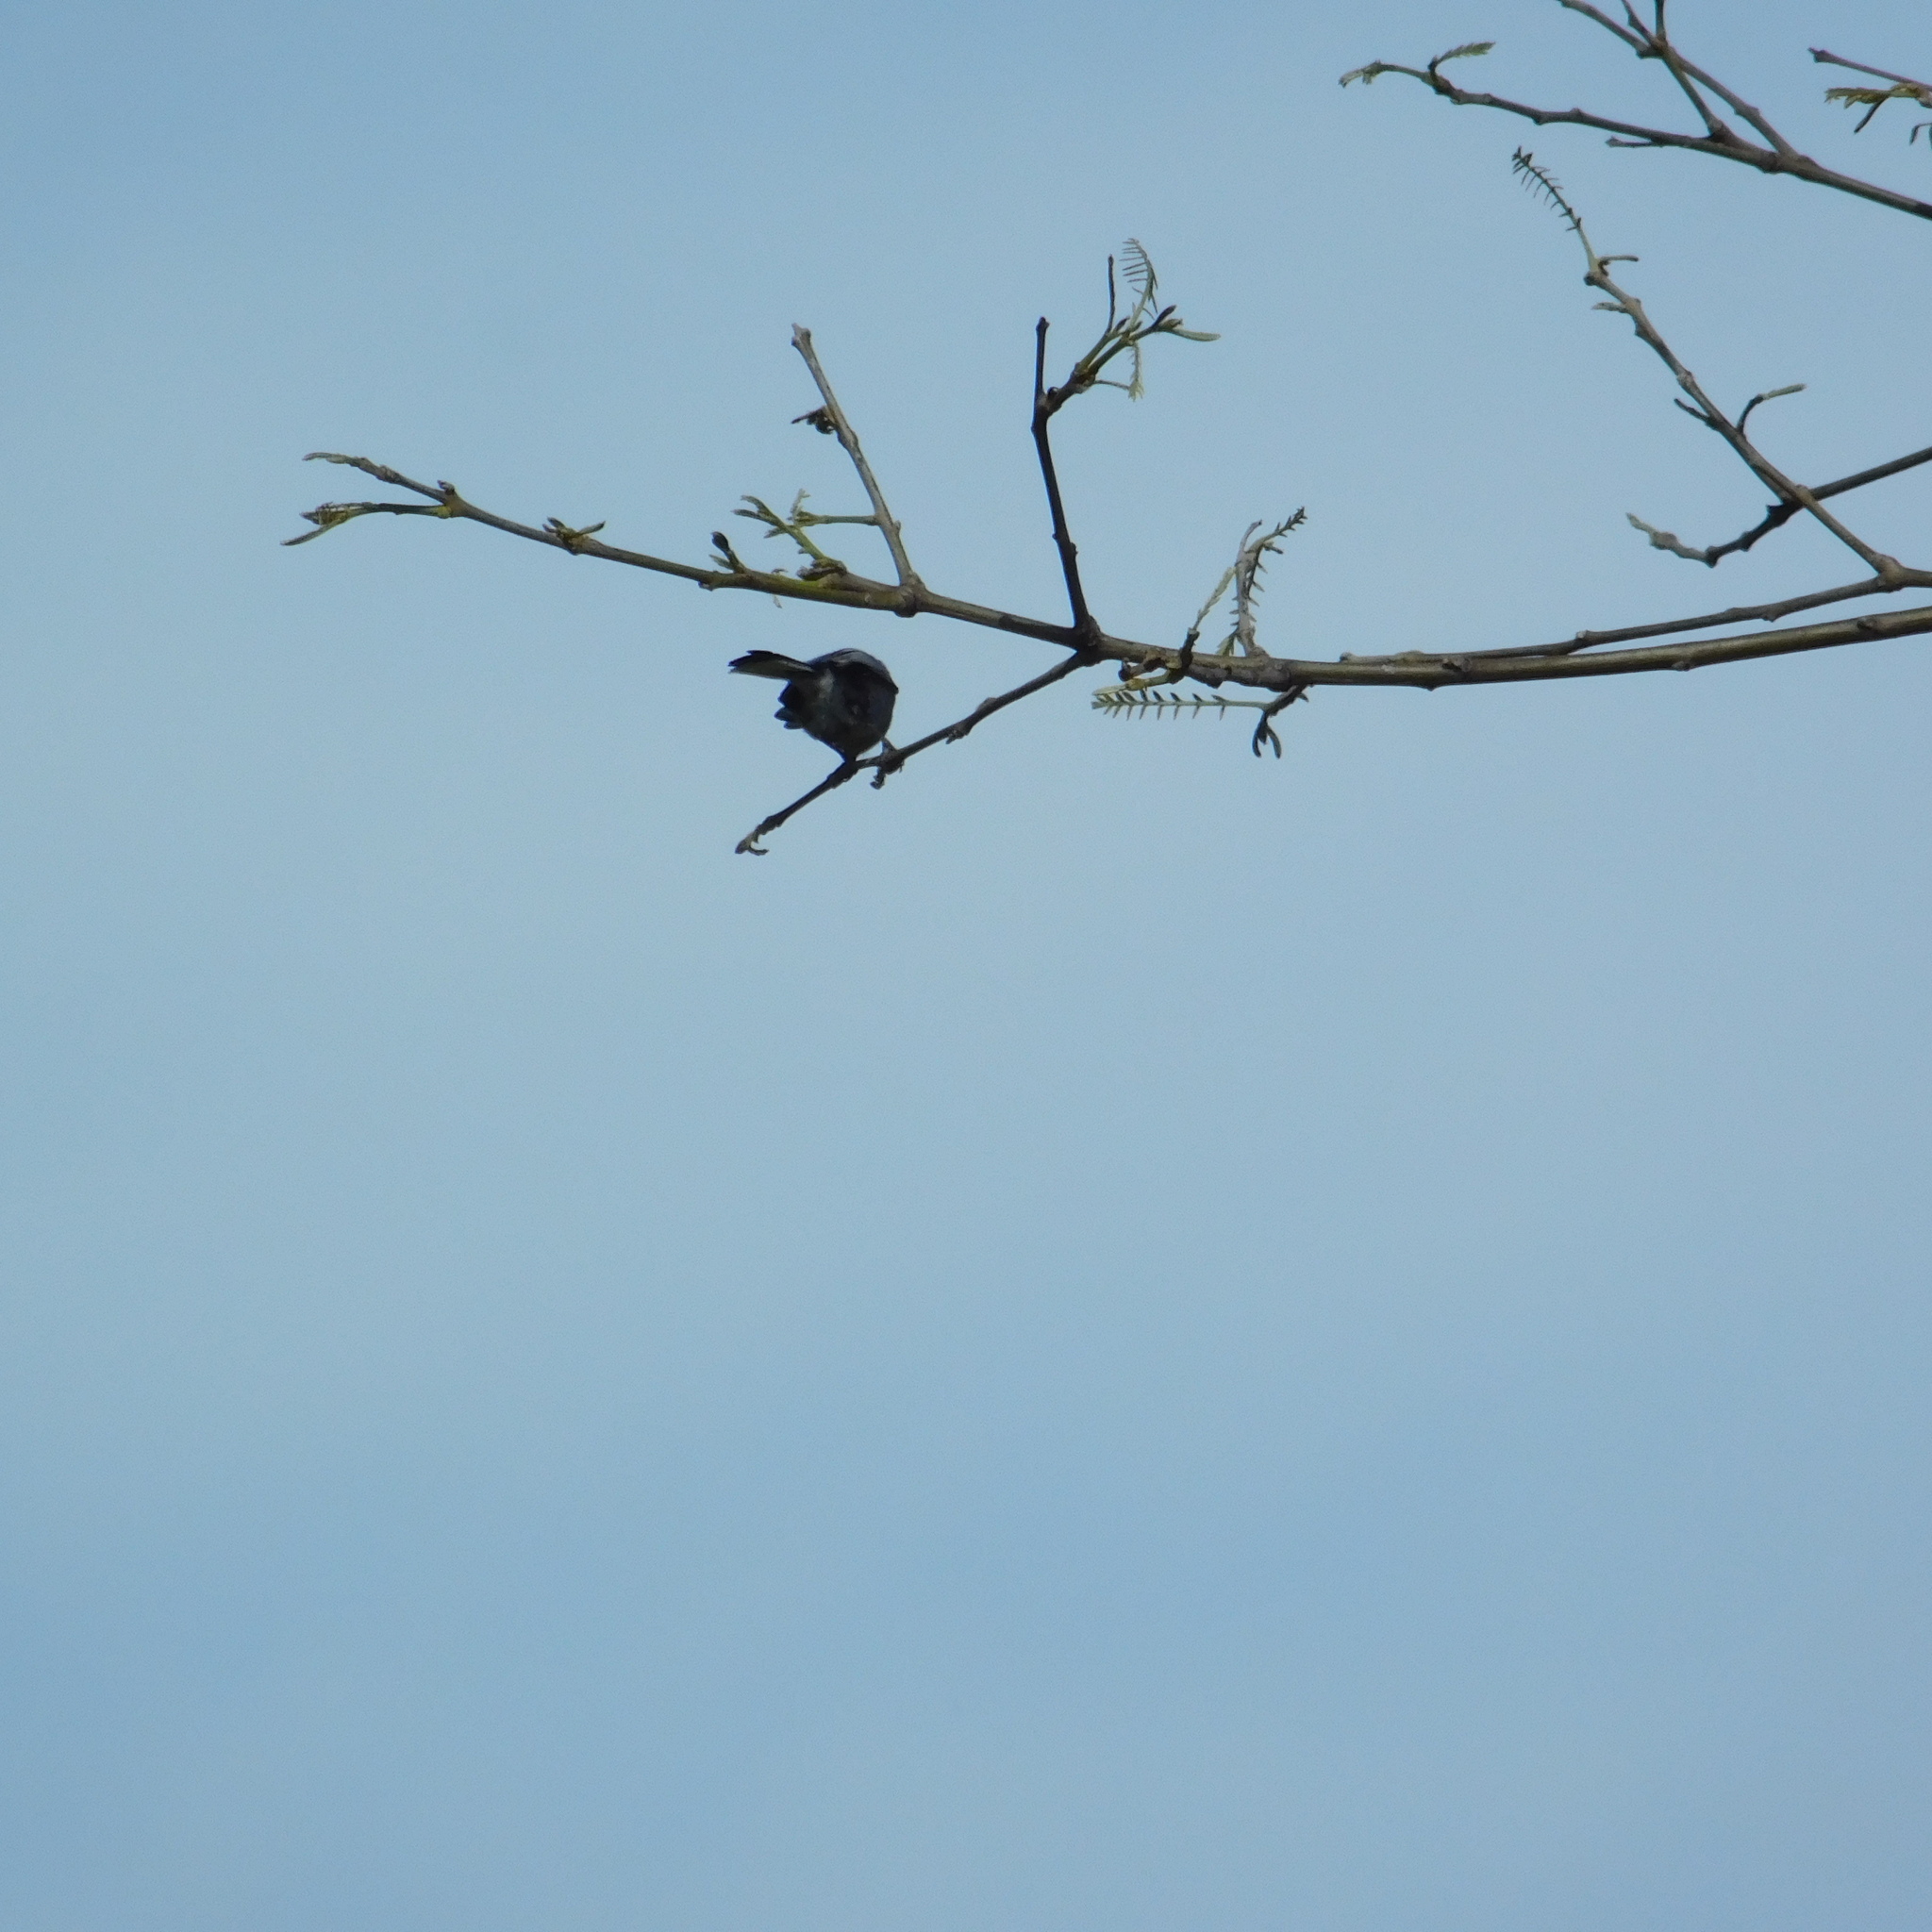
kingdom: Animalia
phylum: Chordata
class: Aves
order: Passeriformes
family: Polioptilidae
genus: Polioptila
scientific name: Polioptila dumicola
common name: Masked gnatcatcher
